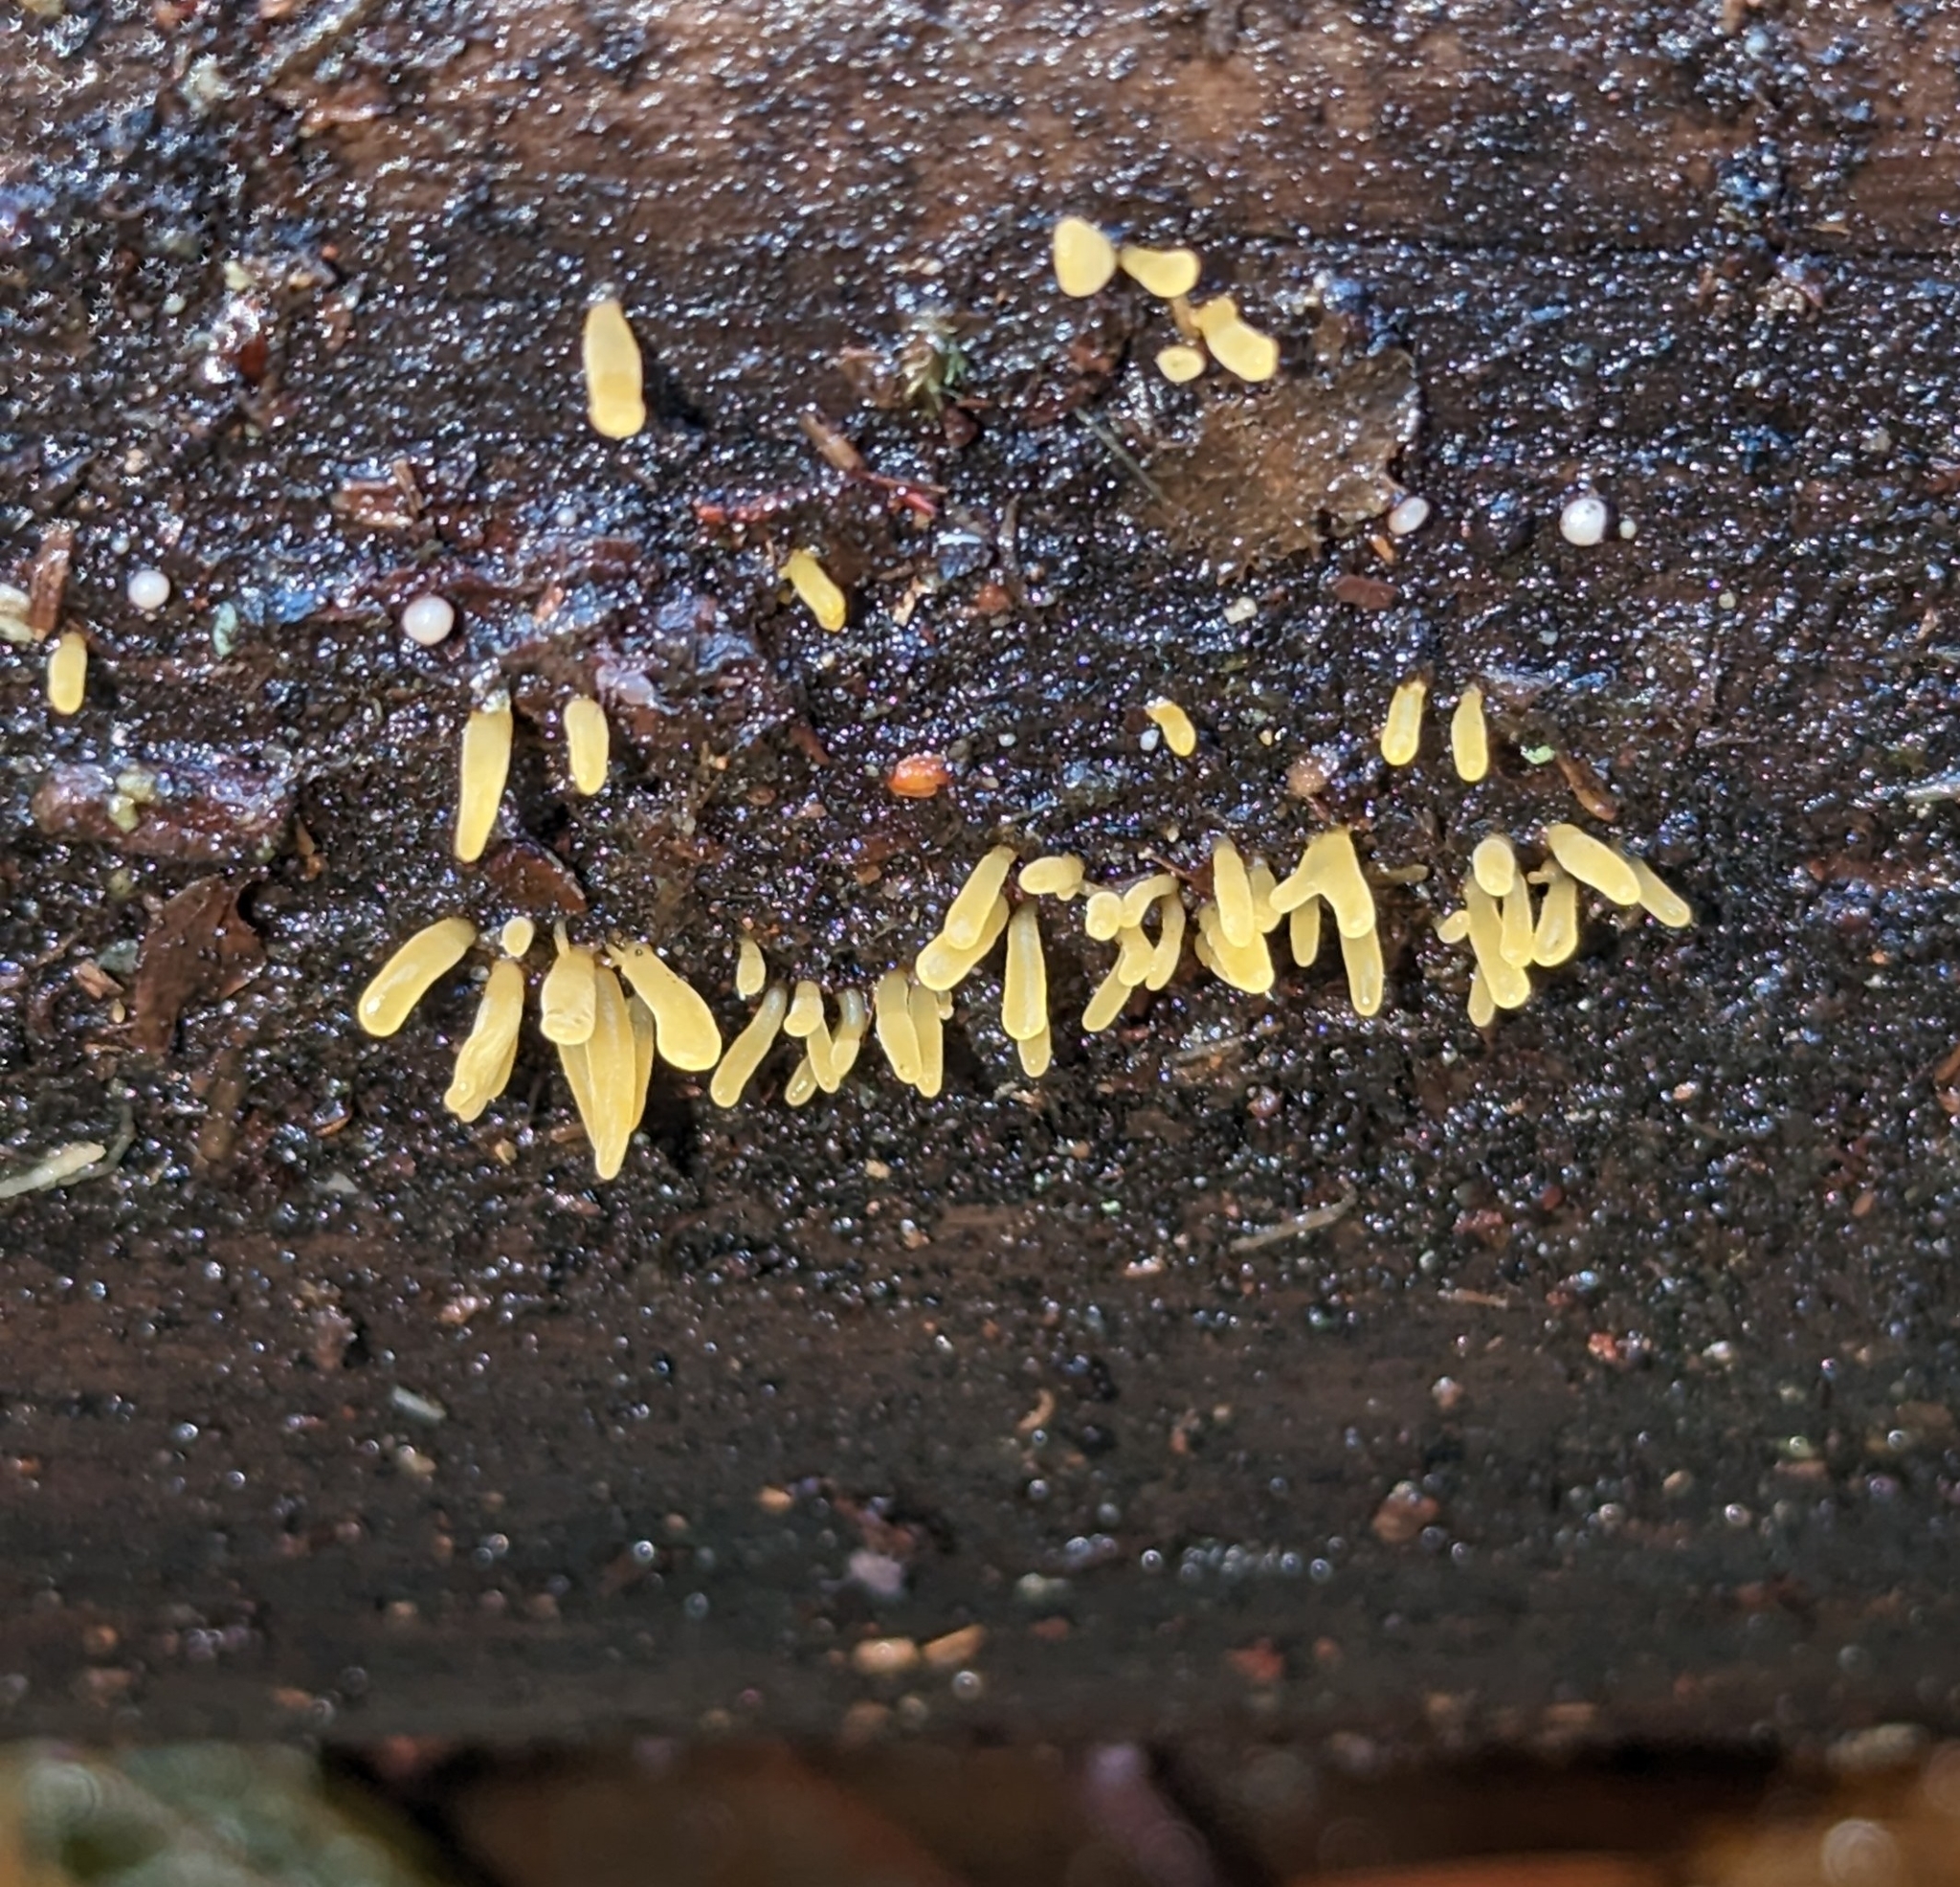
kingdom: Fungi
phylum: Basidiomycota
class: Dacrymycetes
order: Dacrymycetales
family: Dacrymycetaceae
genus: Calocera
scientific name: Calocera cornea
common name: Small stagshorn
